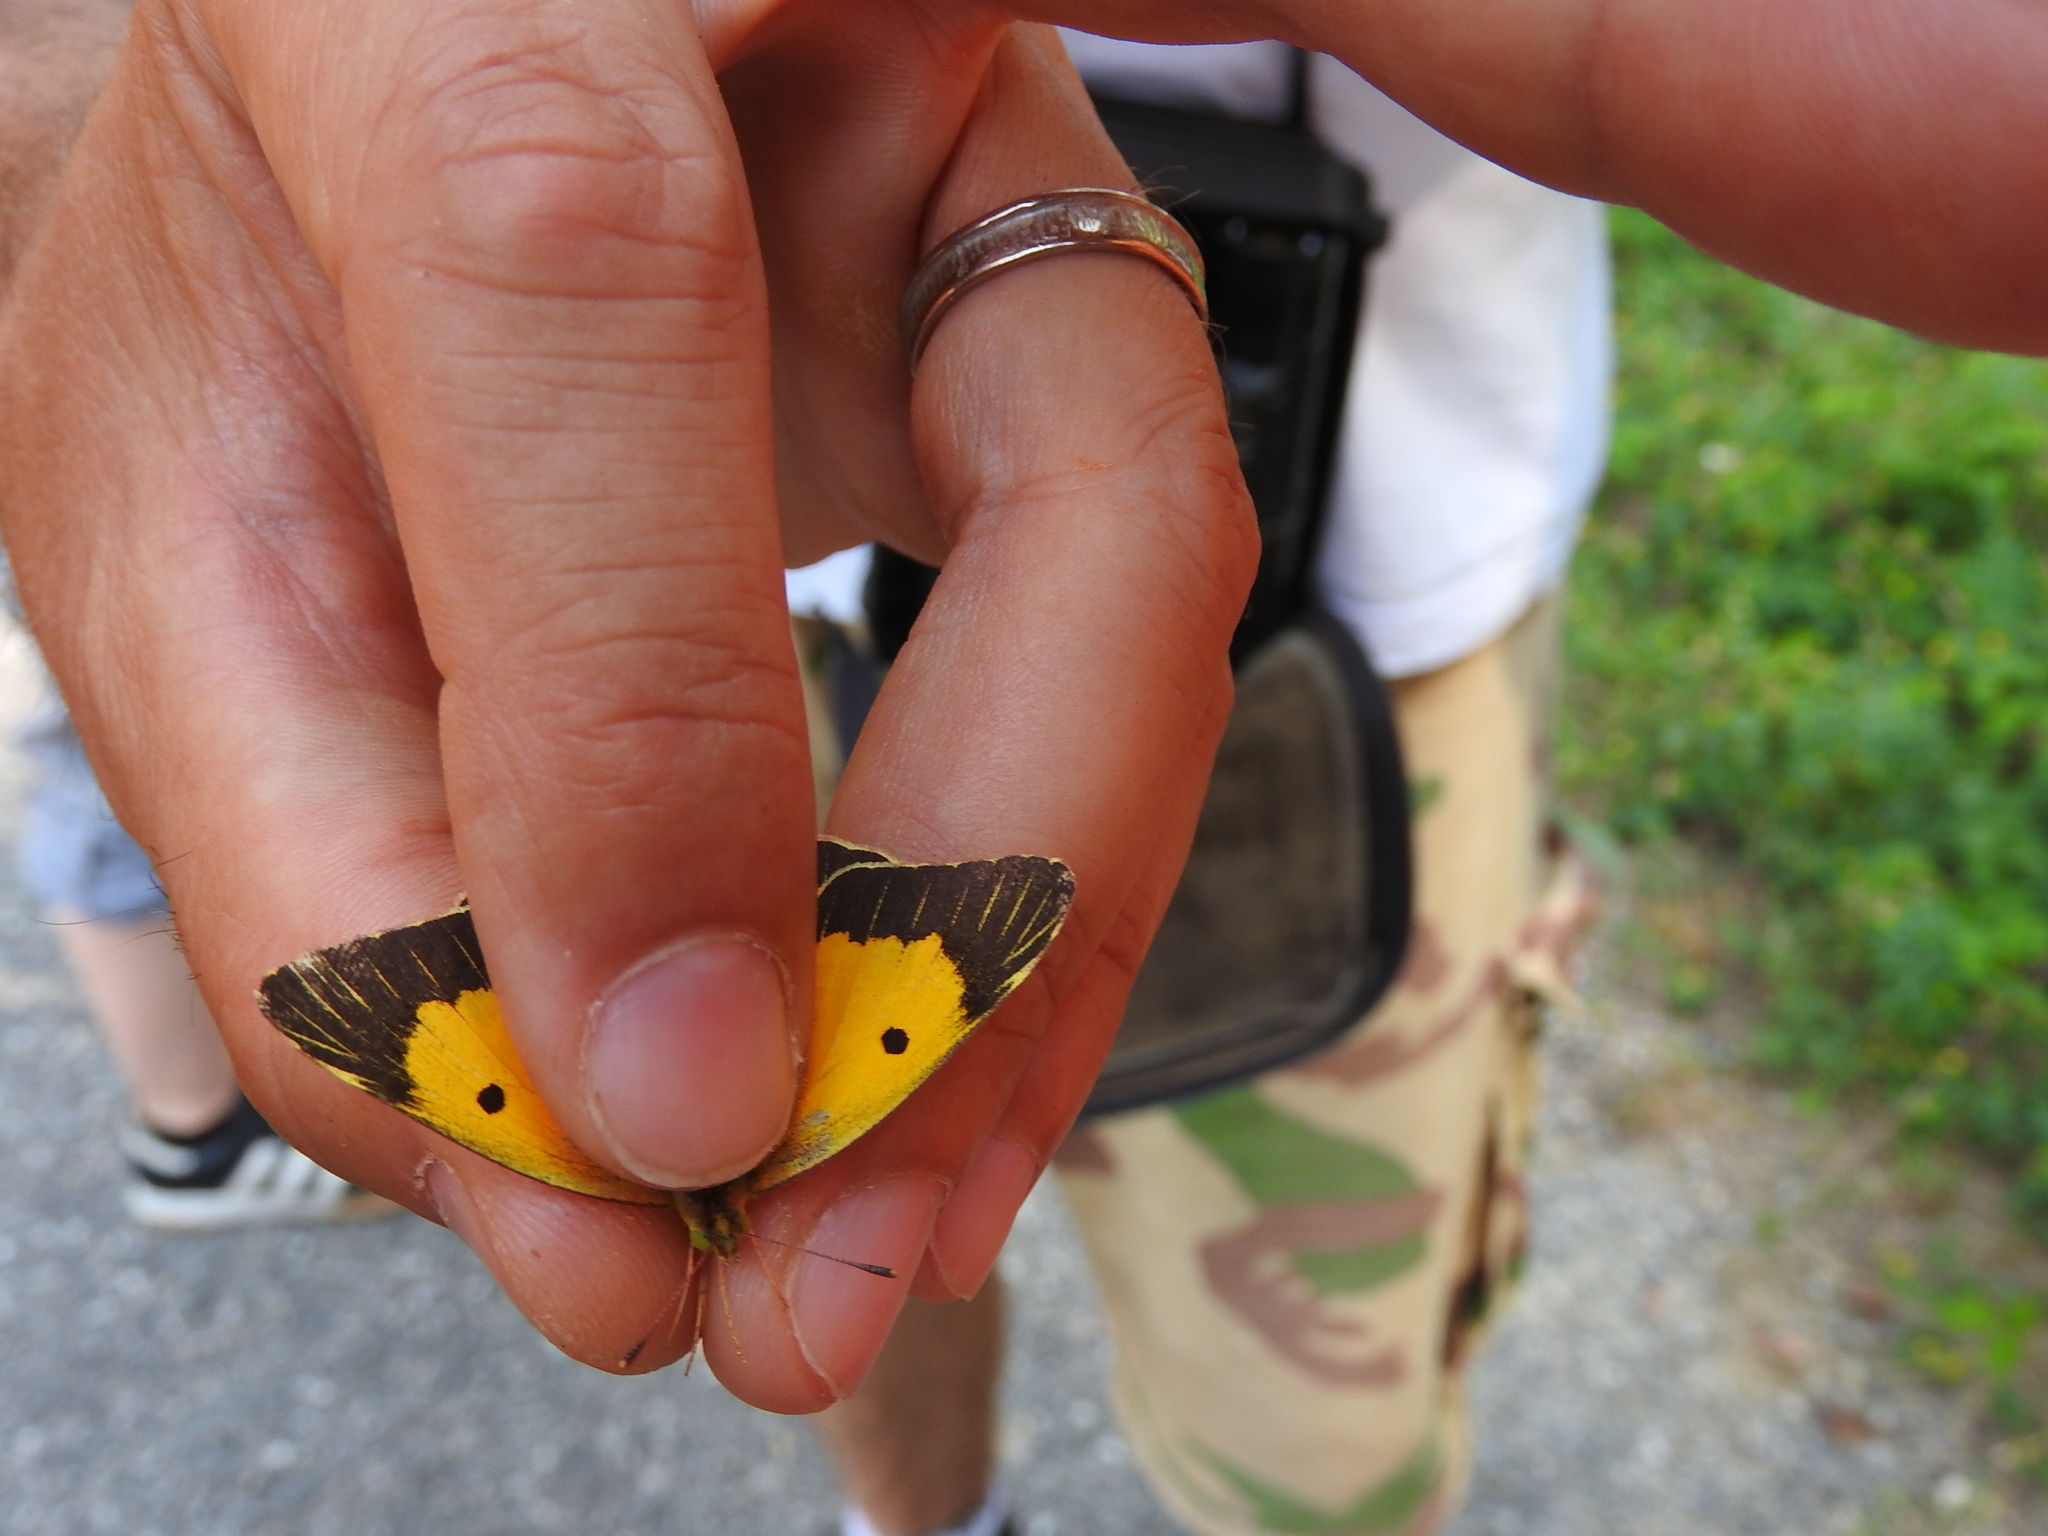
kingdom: Animalia
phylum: Arthropoda
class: Insecta
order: Lepidoptera
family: Pieridae
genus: Colias
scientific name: Colias croceus
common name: Clouded yellow
